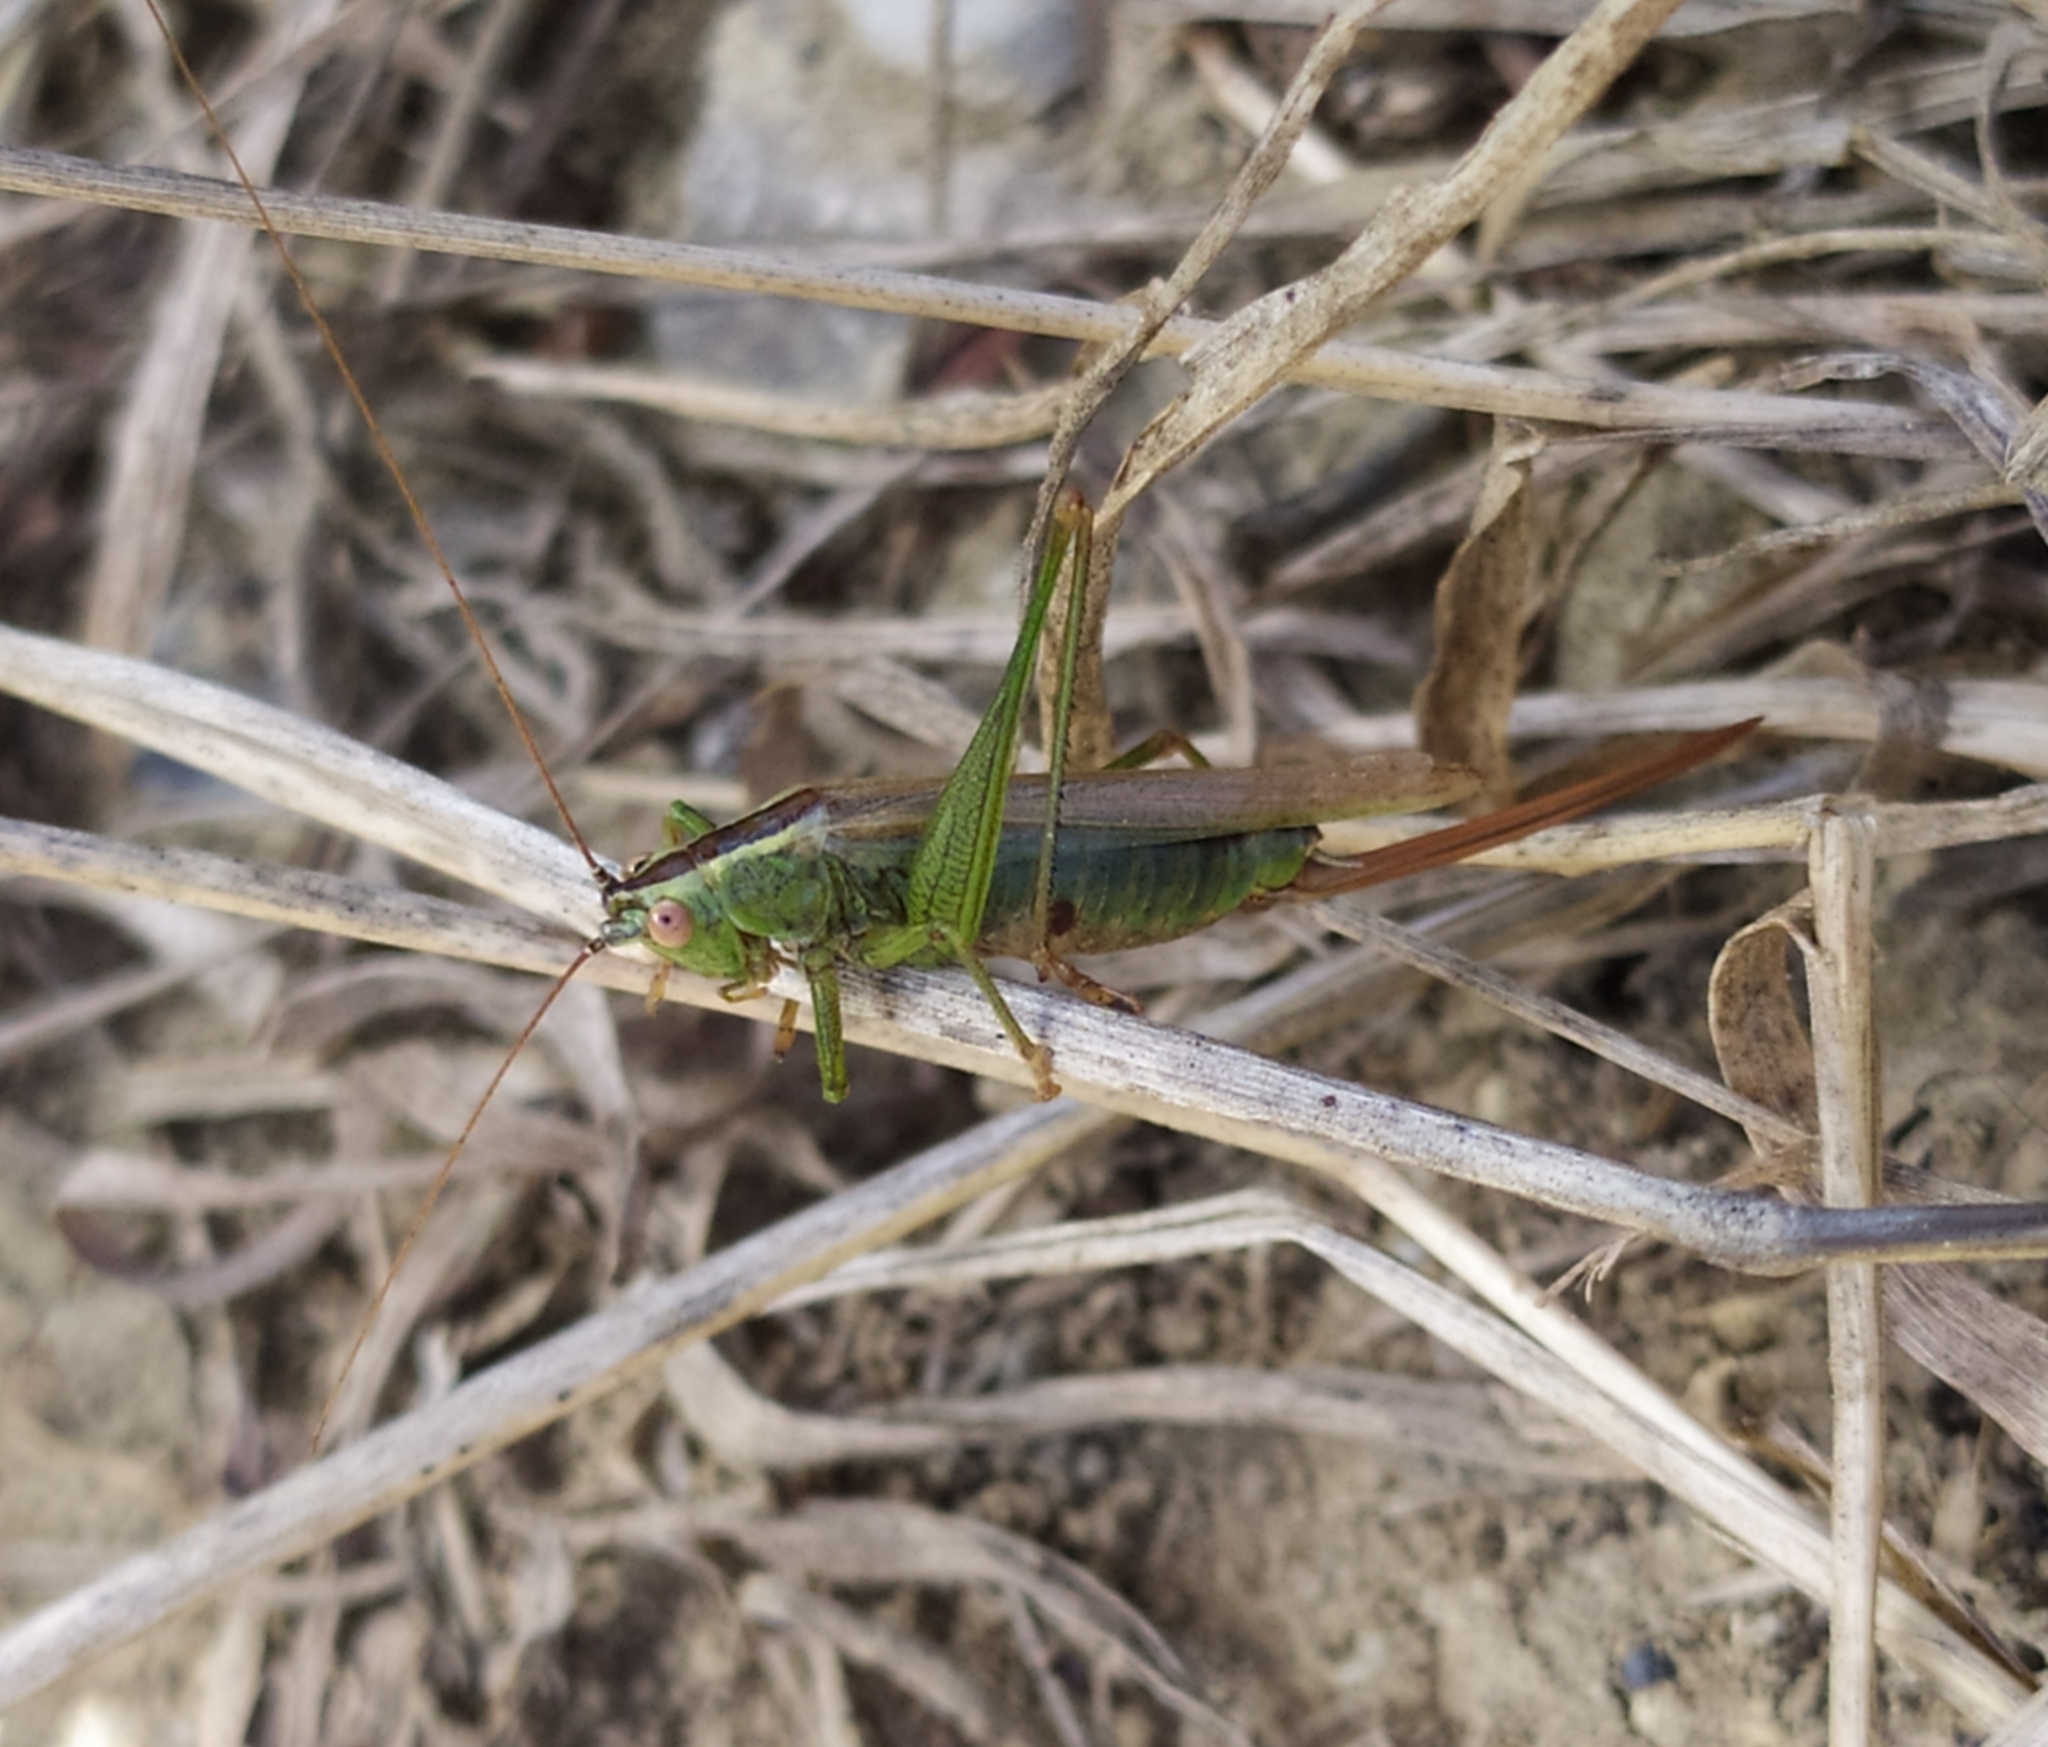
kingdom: Animalia
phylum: Arthropoda
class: Insecta
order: Orthoptera
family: Tettigoniidae
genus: Conocephalus
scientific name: Conocephalus fuscus
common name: Long-winged conehead
